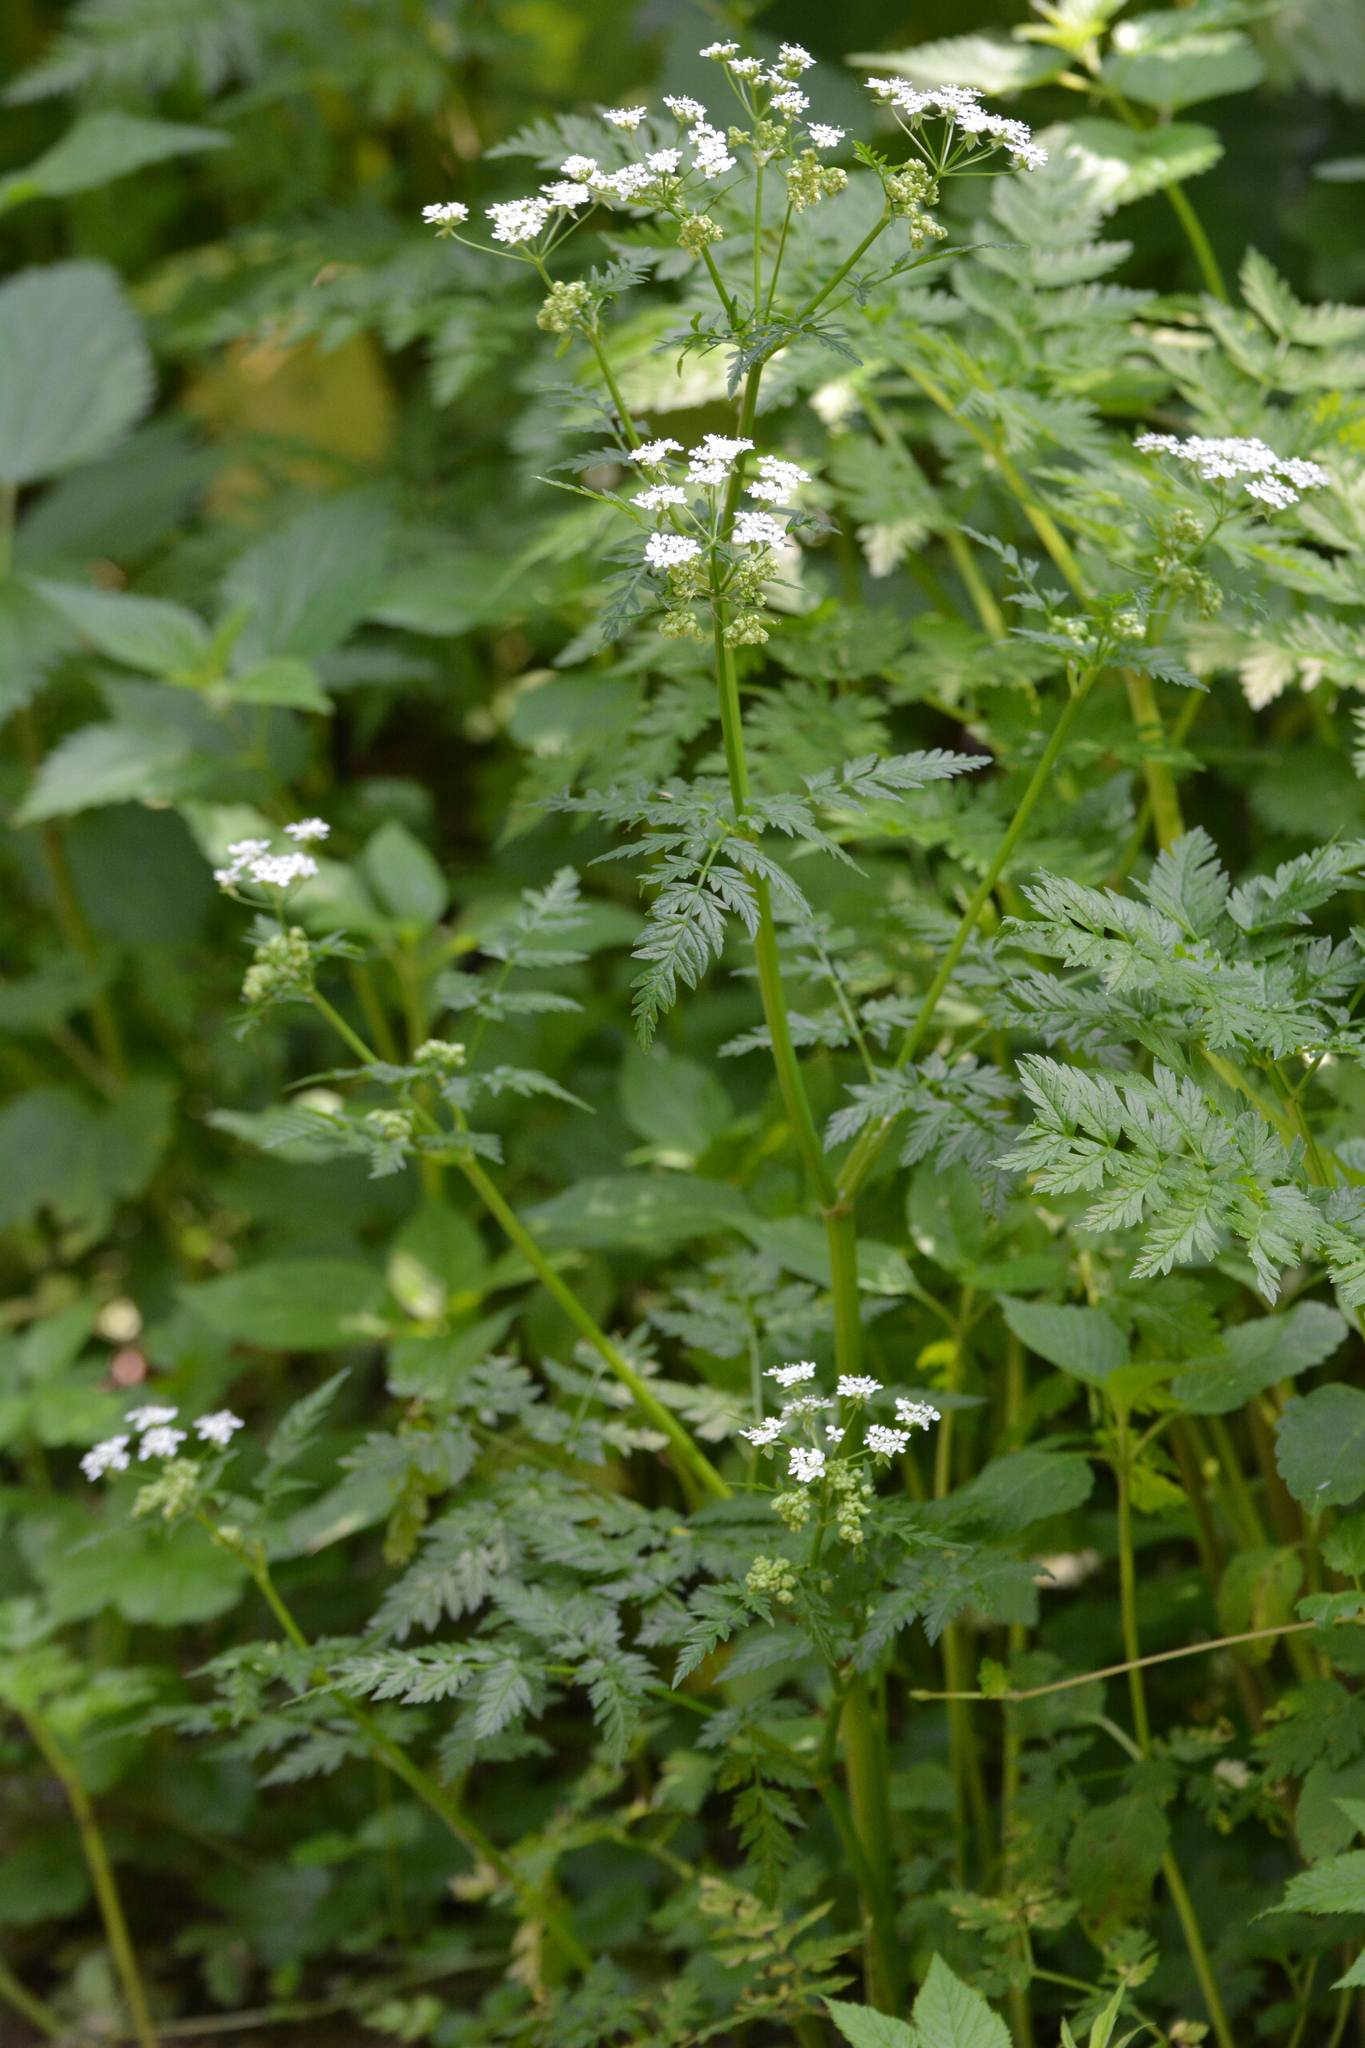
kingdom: Plantae
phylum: Tracheophyta
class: Magnoliopsida
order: Apiales
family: Apiaceae
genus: Anthriscus
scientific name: Anthriscus sylvestris
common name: Cow parsley
